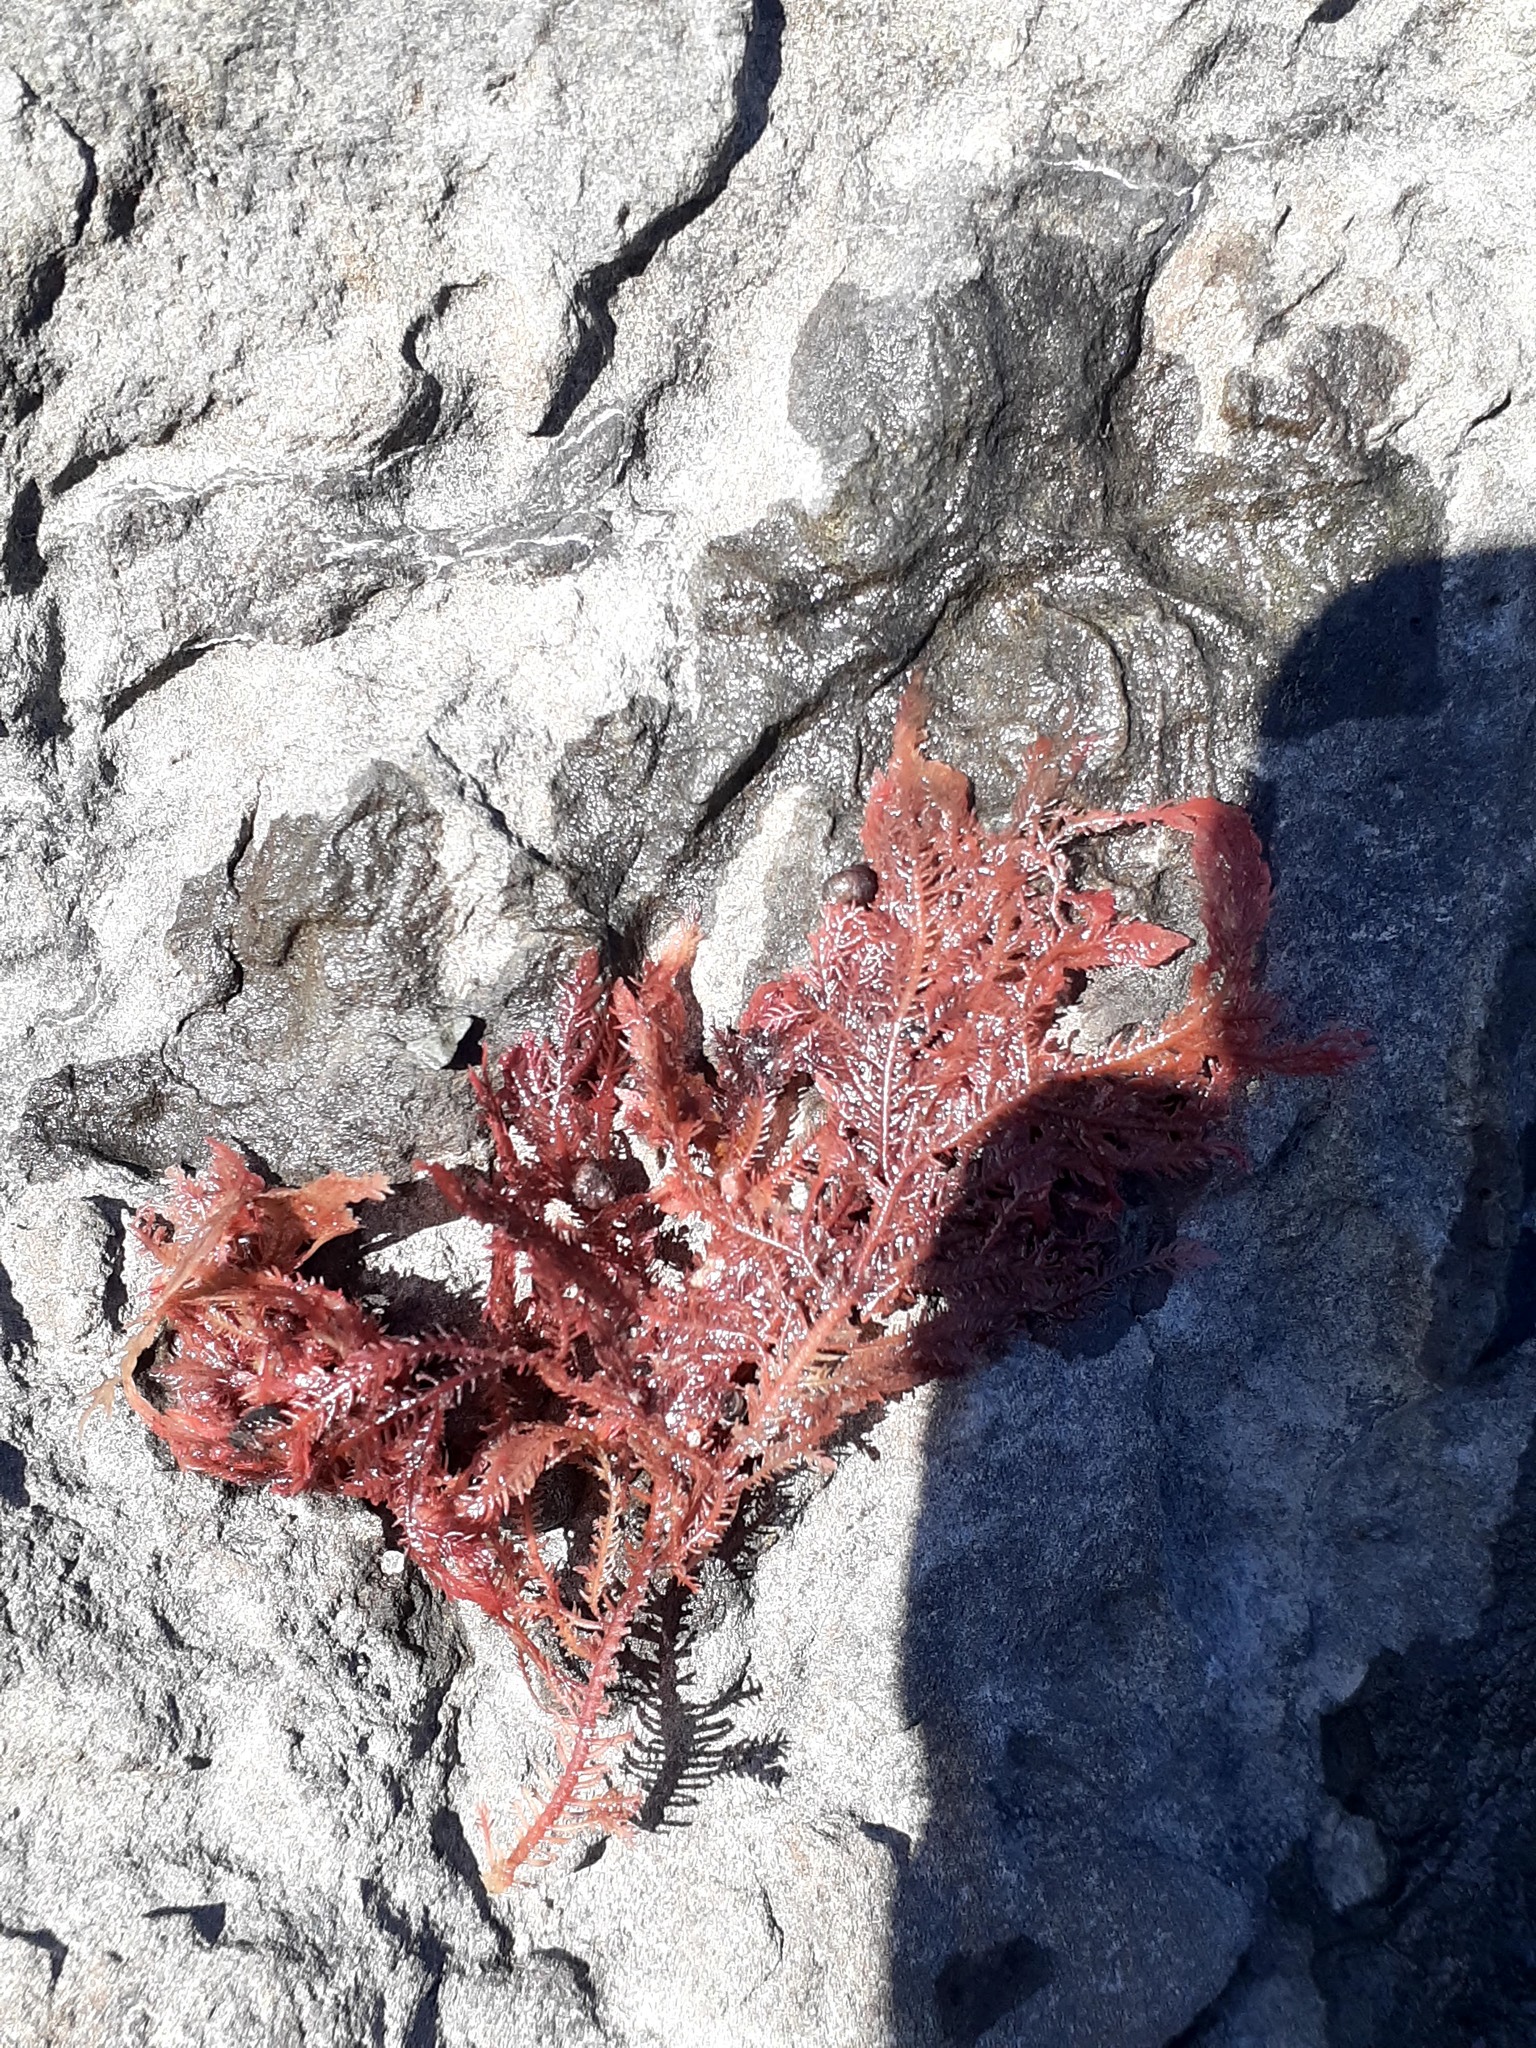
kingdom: Plantae
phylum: Rhodophyta
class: Florideophyceae
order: Ceramiales
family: Wrangeliaceae
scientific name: Wrangeliaceae
